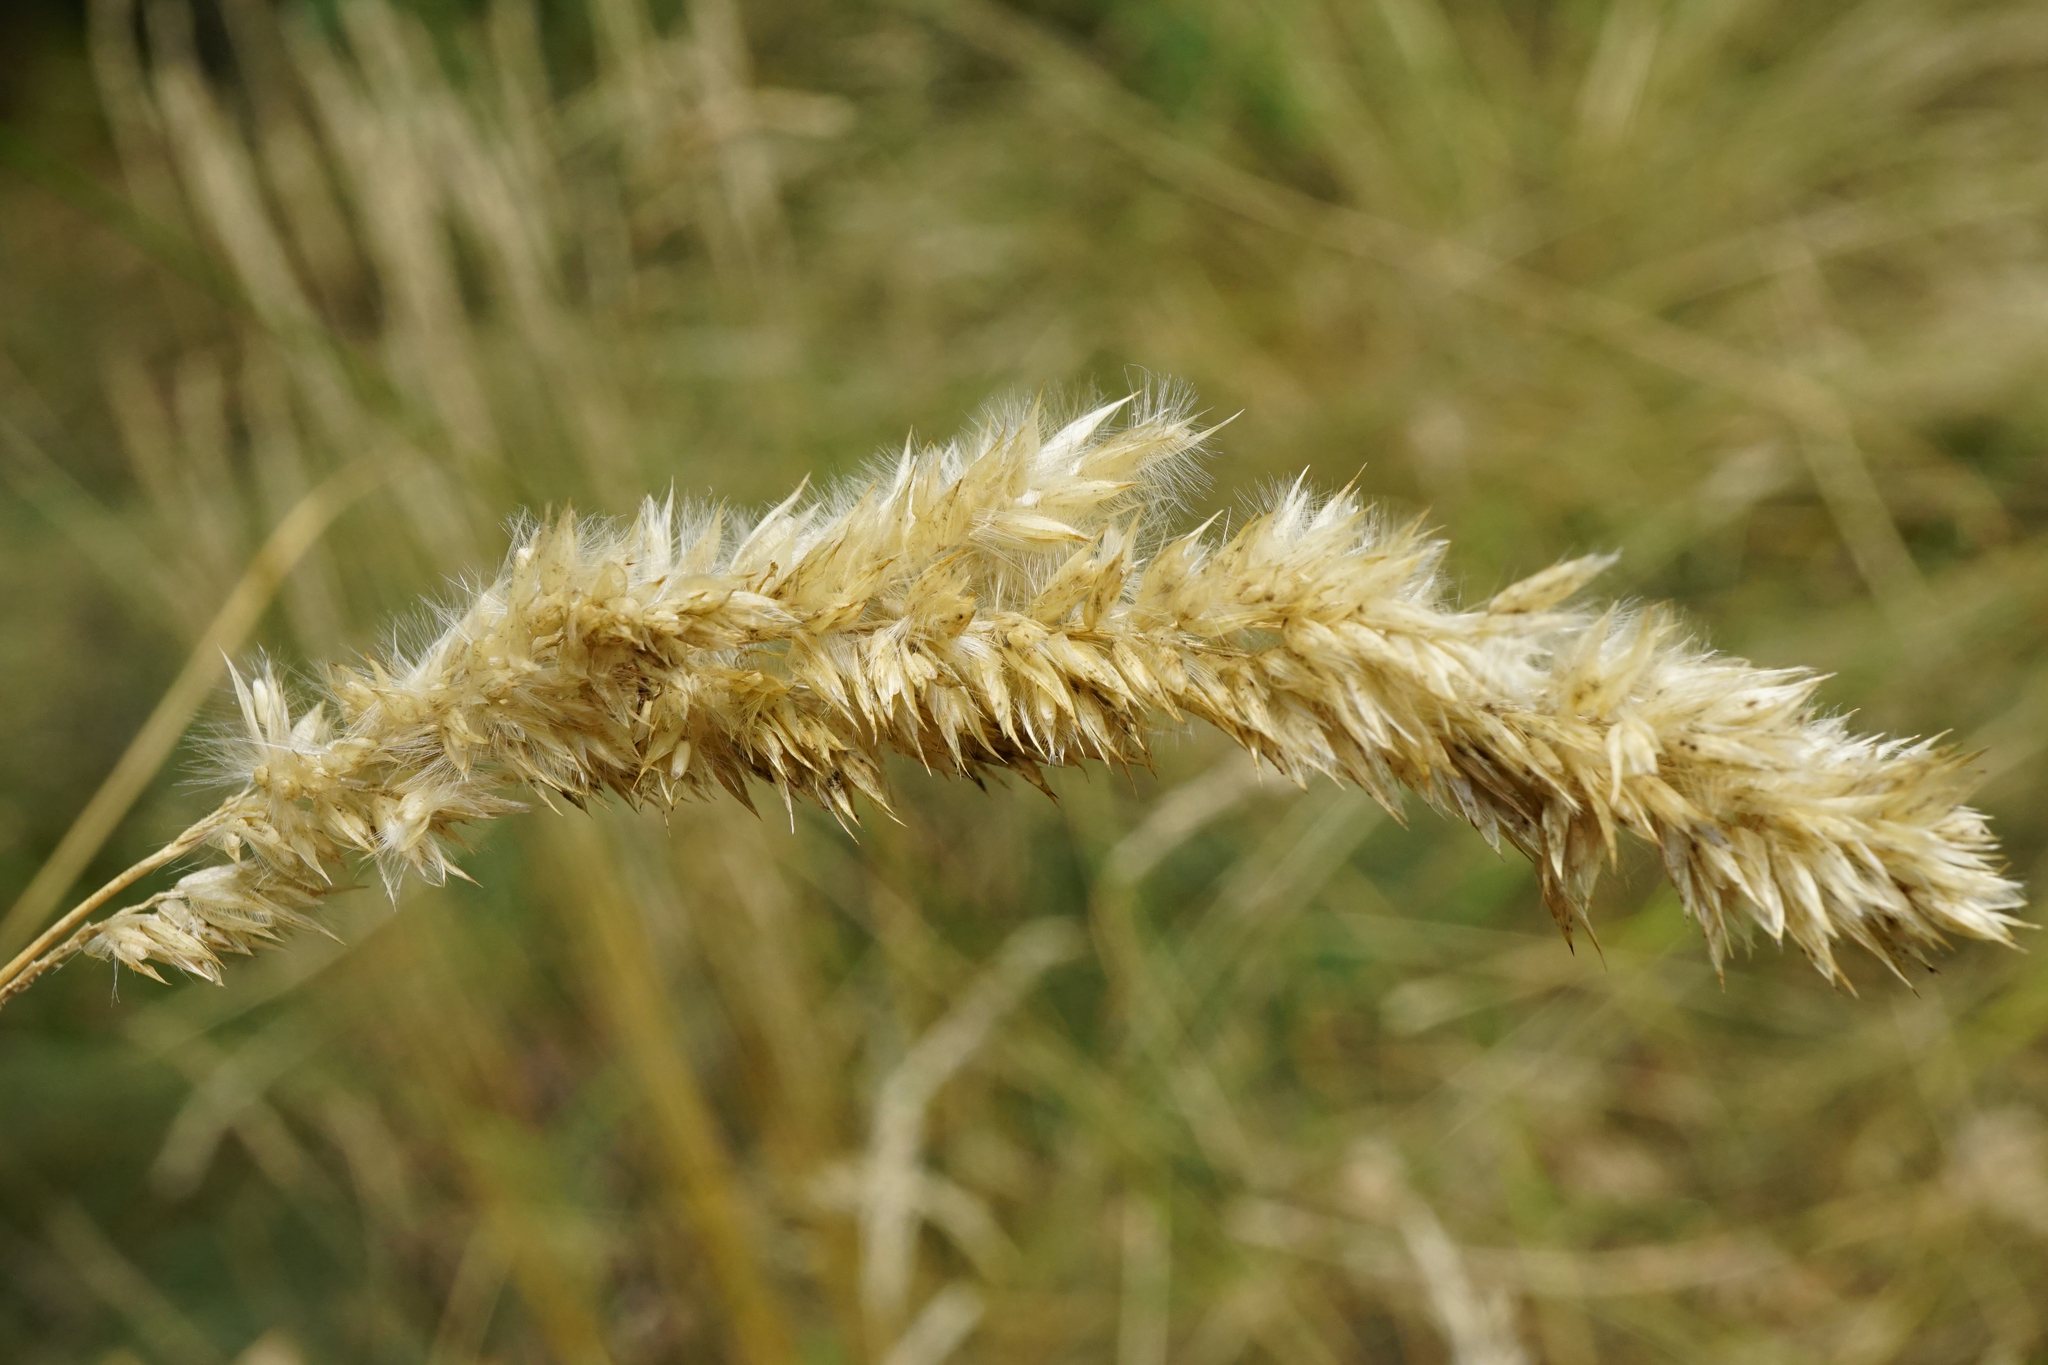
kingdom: Plantae
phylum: Tracheophyta
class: Liliopsida
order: Poales
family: Poaceae
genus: Melica
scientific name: Melica ciliata
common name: Hairy melicgrass
